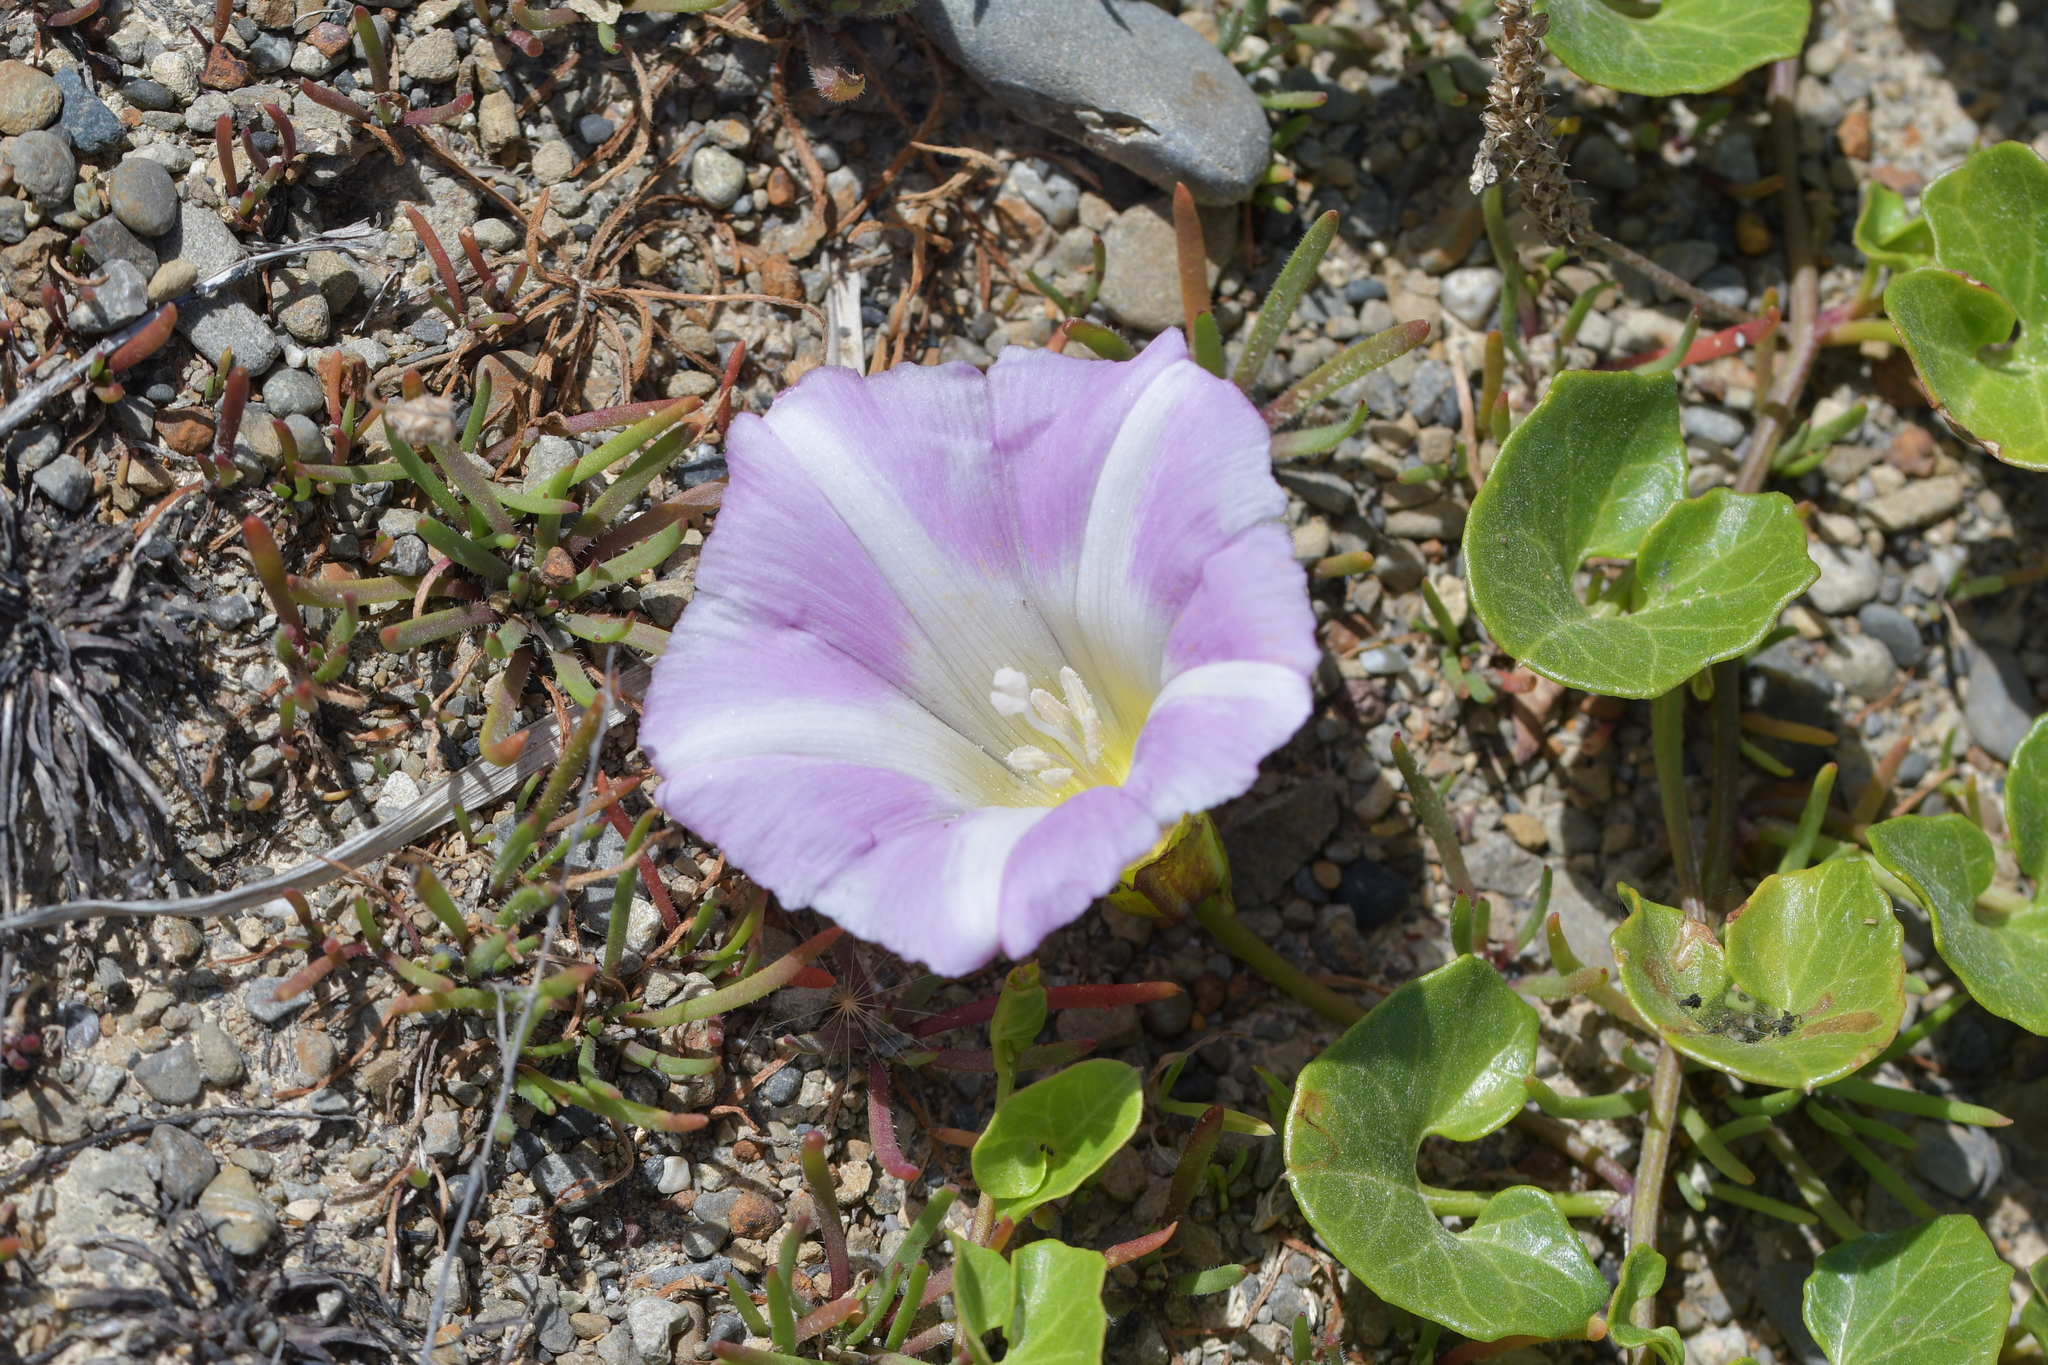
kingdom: Plantae
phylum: Tracheophyta
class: Magnoliopsida
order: Solanales
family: Convolvulaceae
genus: Calystegia
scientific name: Calystegia soldanella
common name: Sea bindweed
